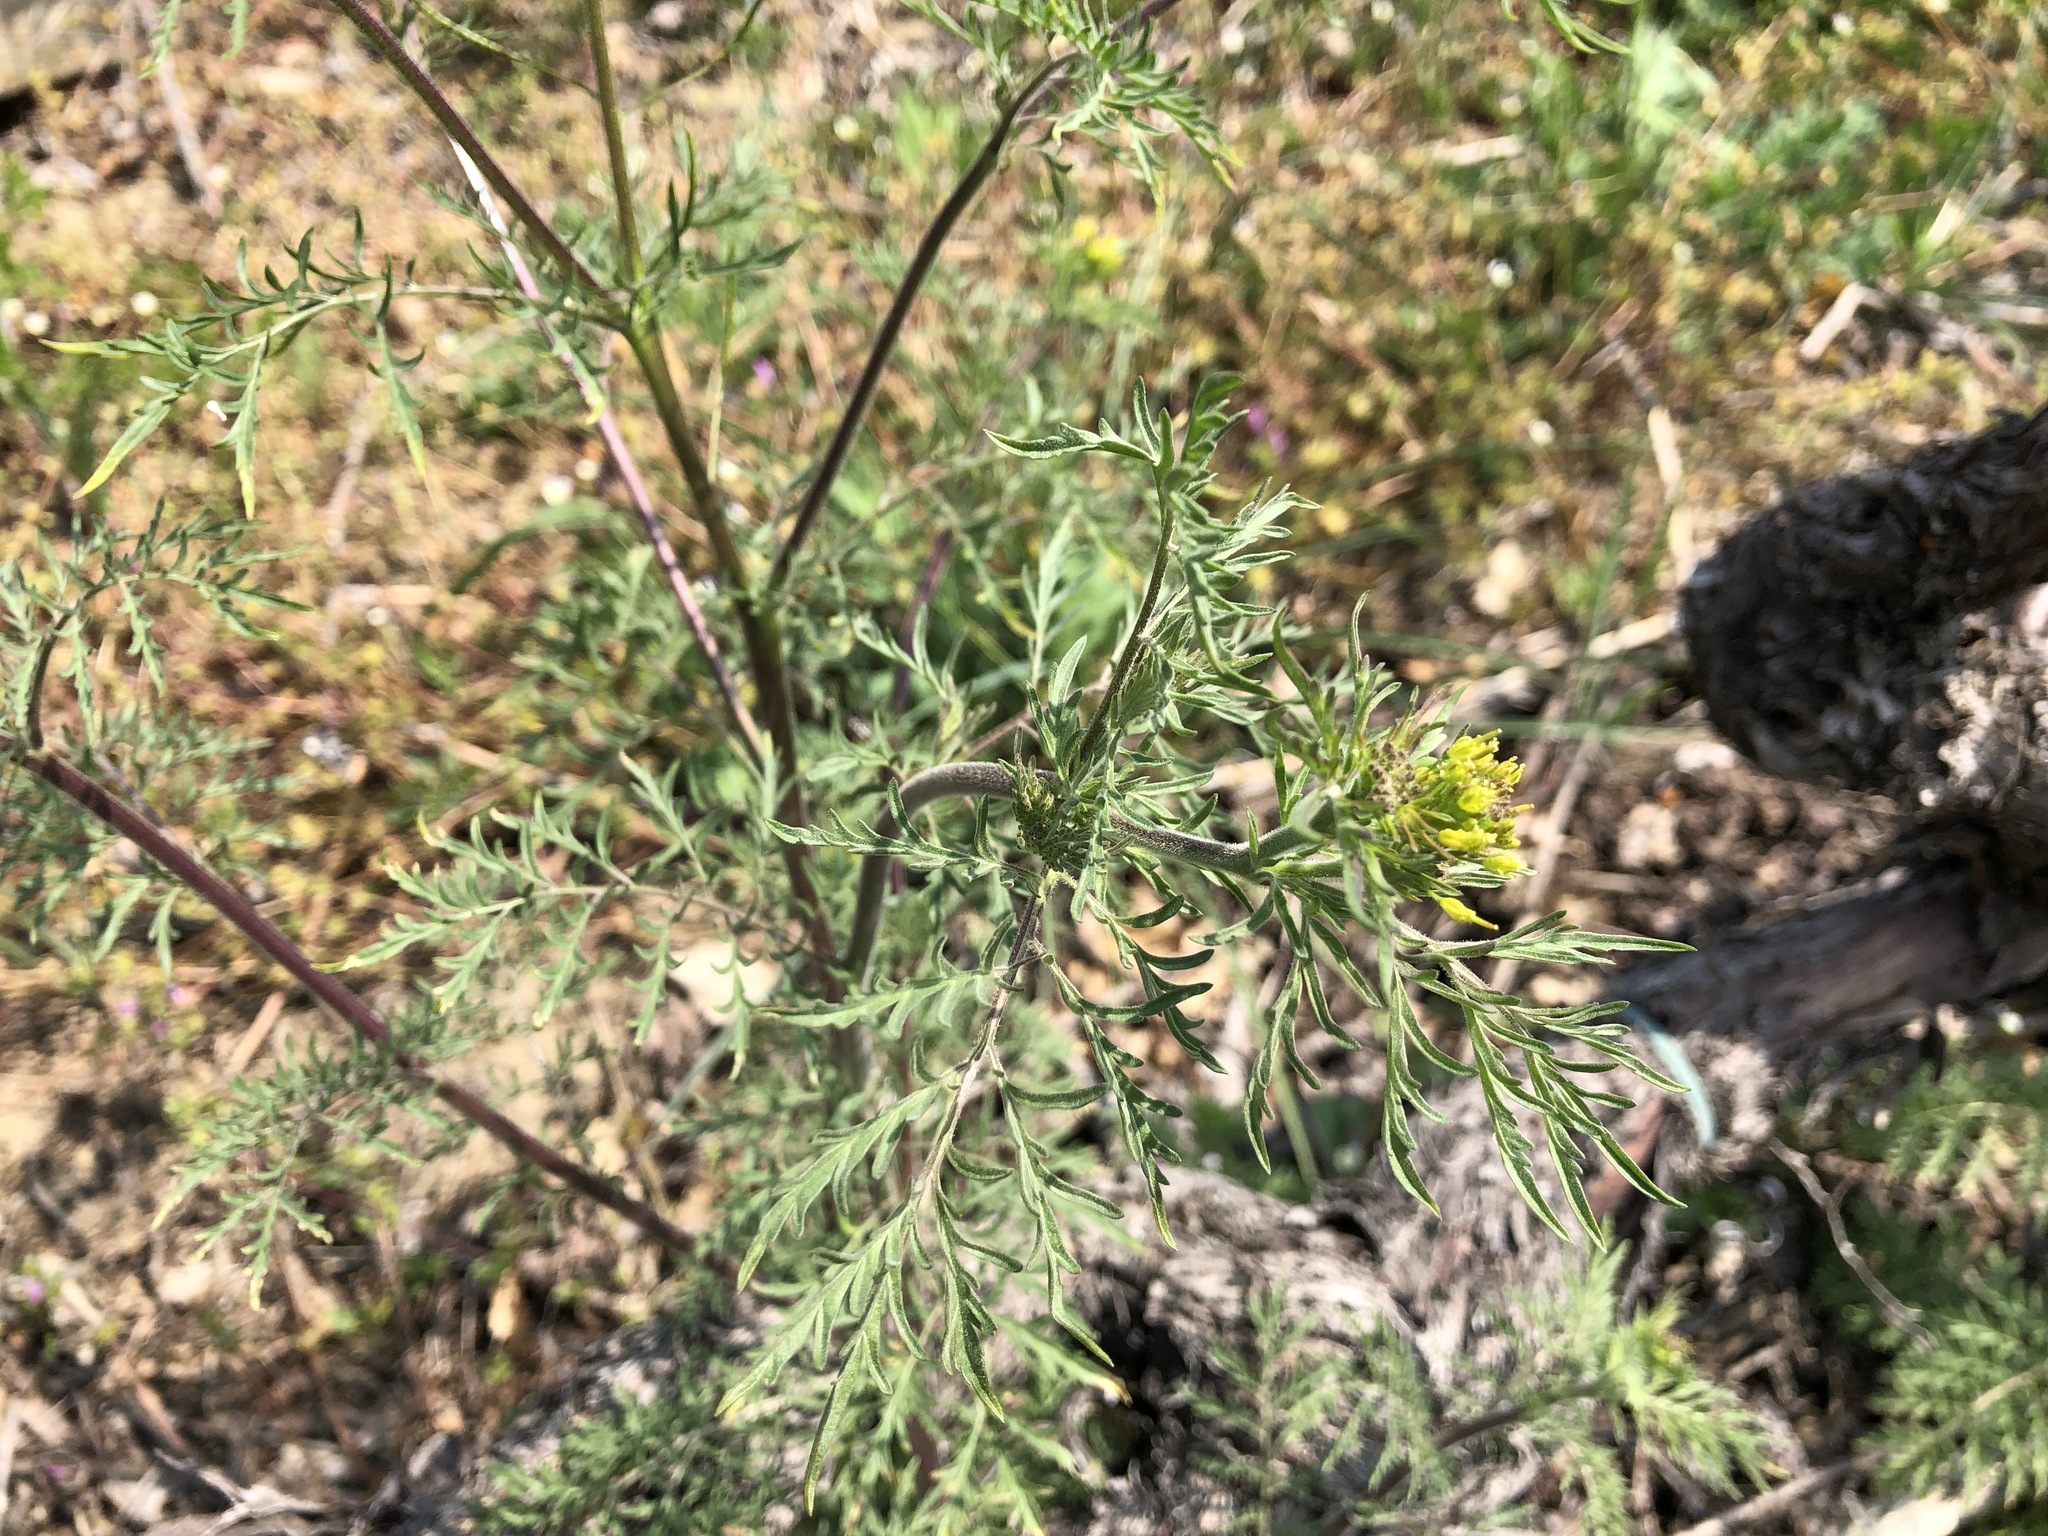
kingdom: Plantae
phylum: Tracheophyta
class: Magnoliopsida
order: Brassicales
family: Brassicaceae
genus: Descurainia
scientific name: Descurainia sophia
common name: Flixweed
